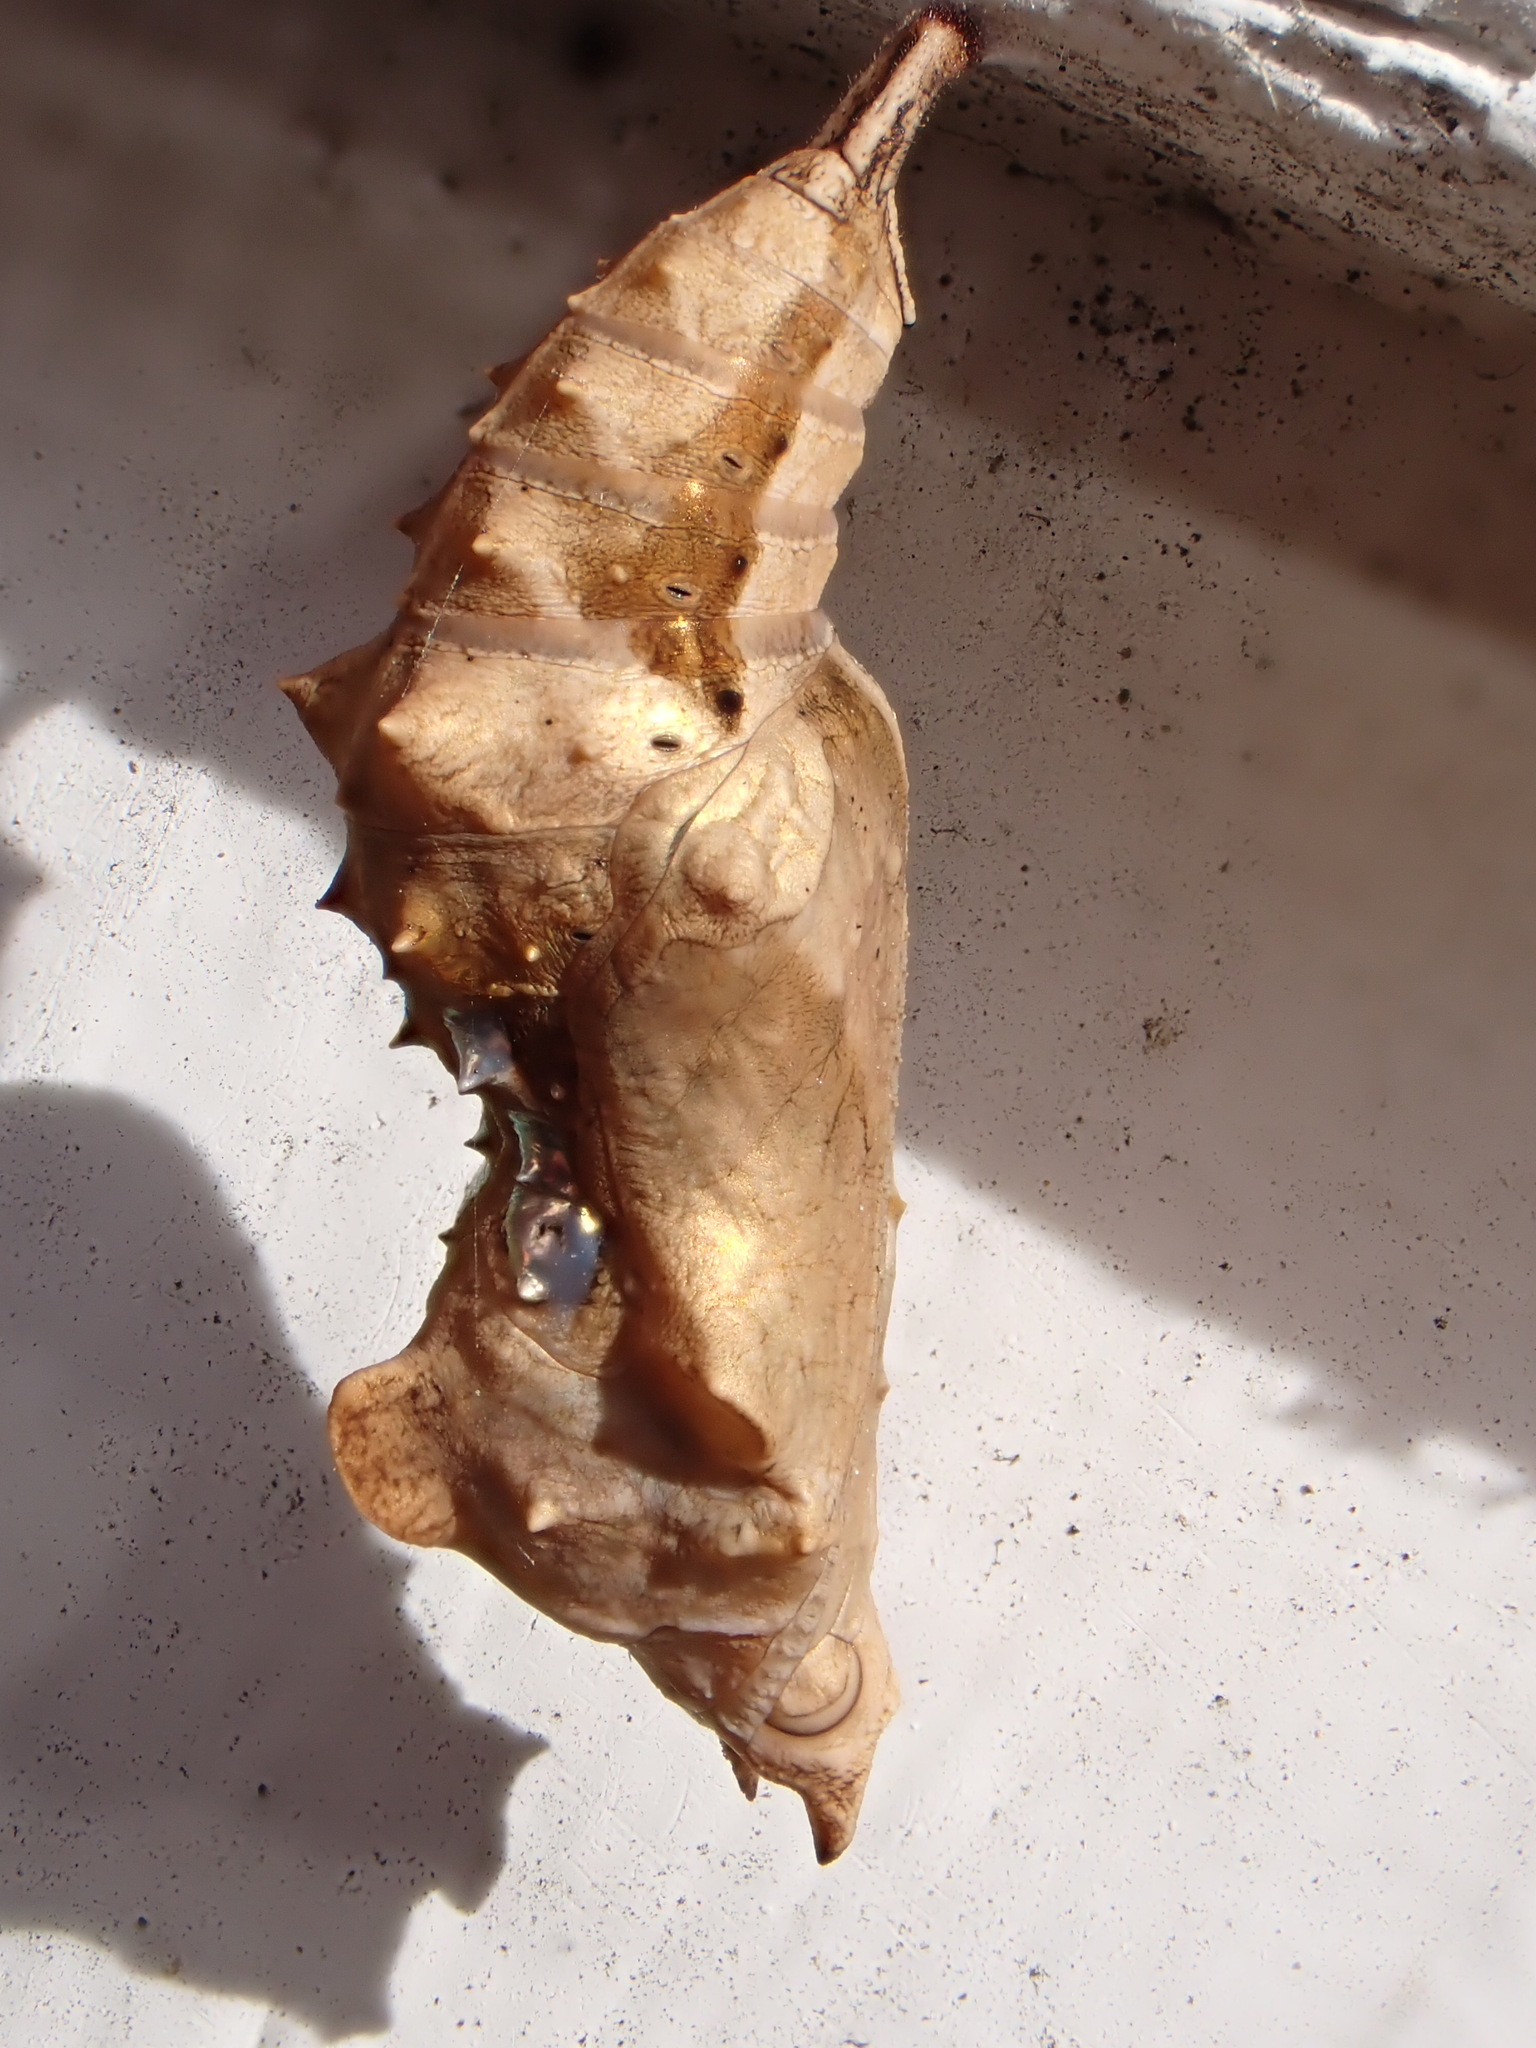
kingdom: Animalia
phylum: Arthropoda
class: Insecta
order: Lepidoptera
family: Nymphalidae
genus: Polygonia
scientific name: Polygonia c-album
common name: Comma
